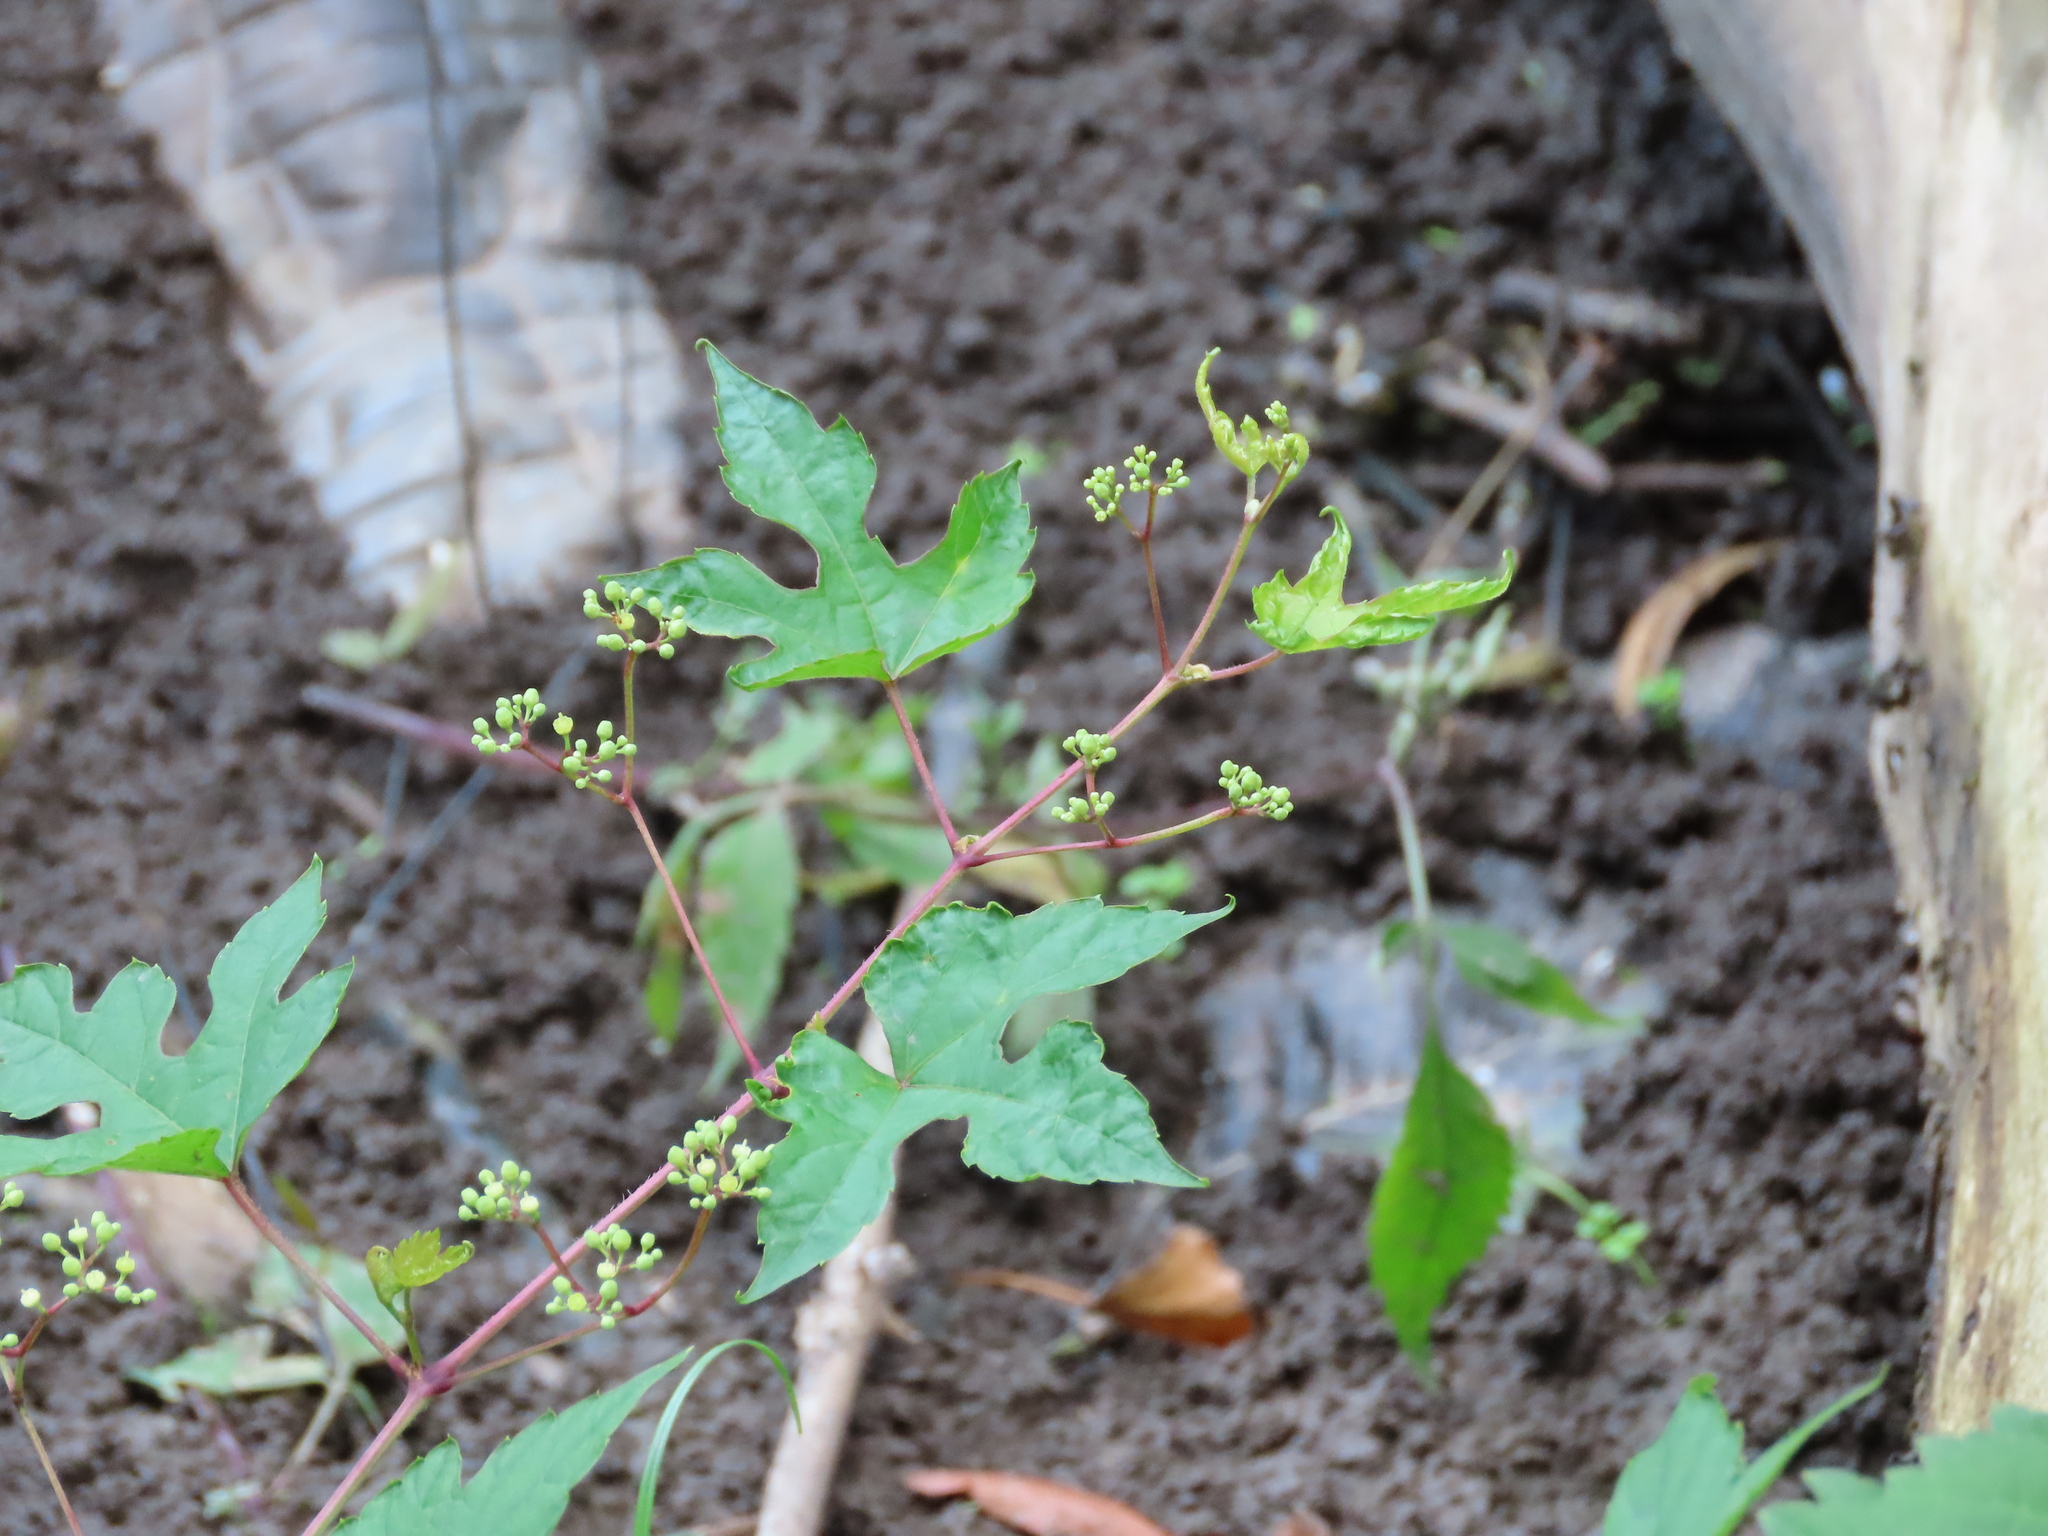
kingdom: Plantae
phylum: Tracheophyta
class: Magnoliopsida
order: Vitales
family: Vitaceae
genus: Ampelopsis
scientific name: Ampelopsis glandulosa
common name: Amur peppervine
